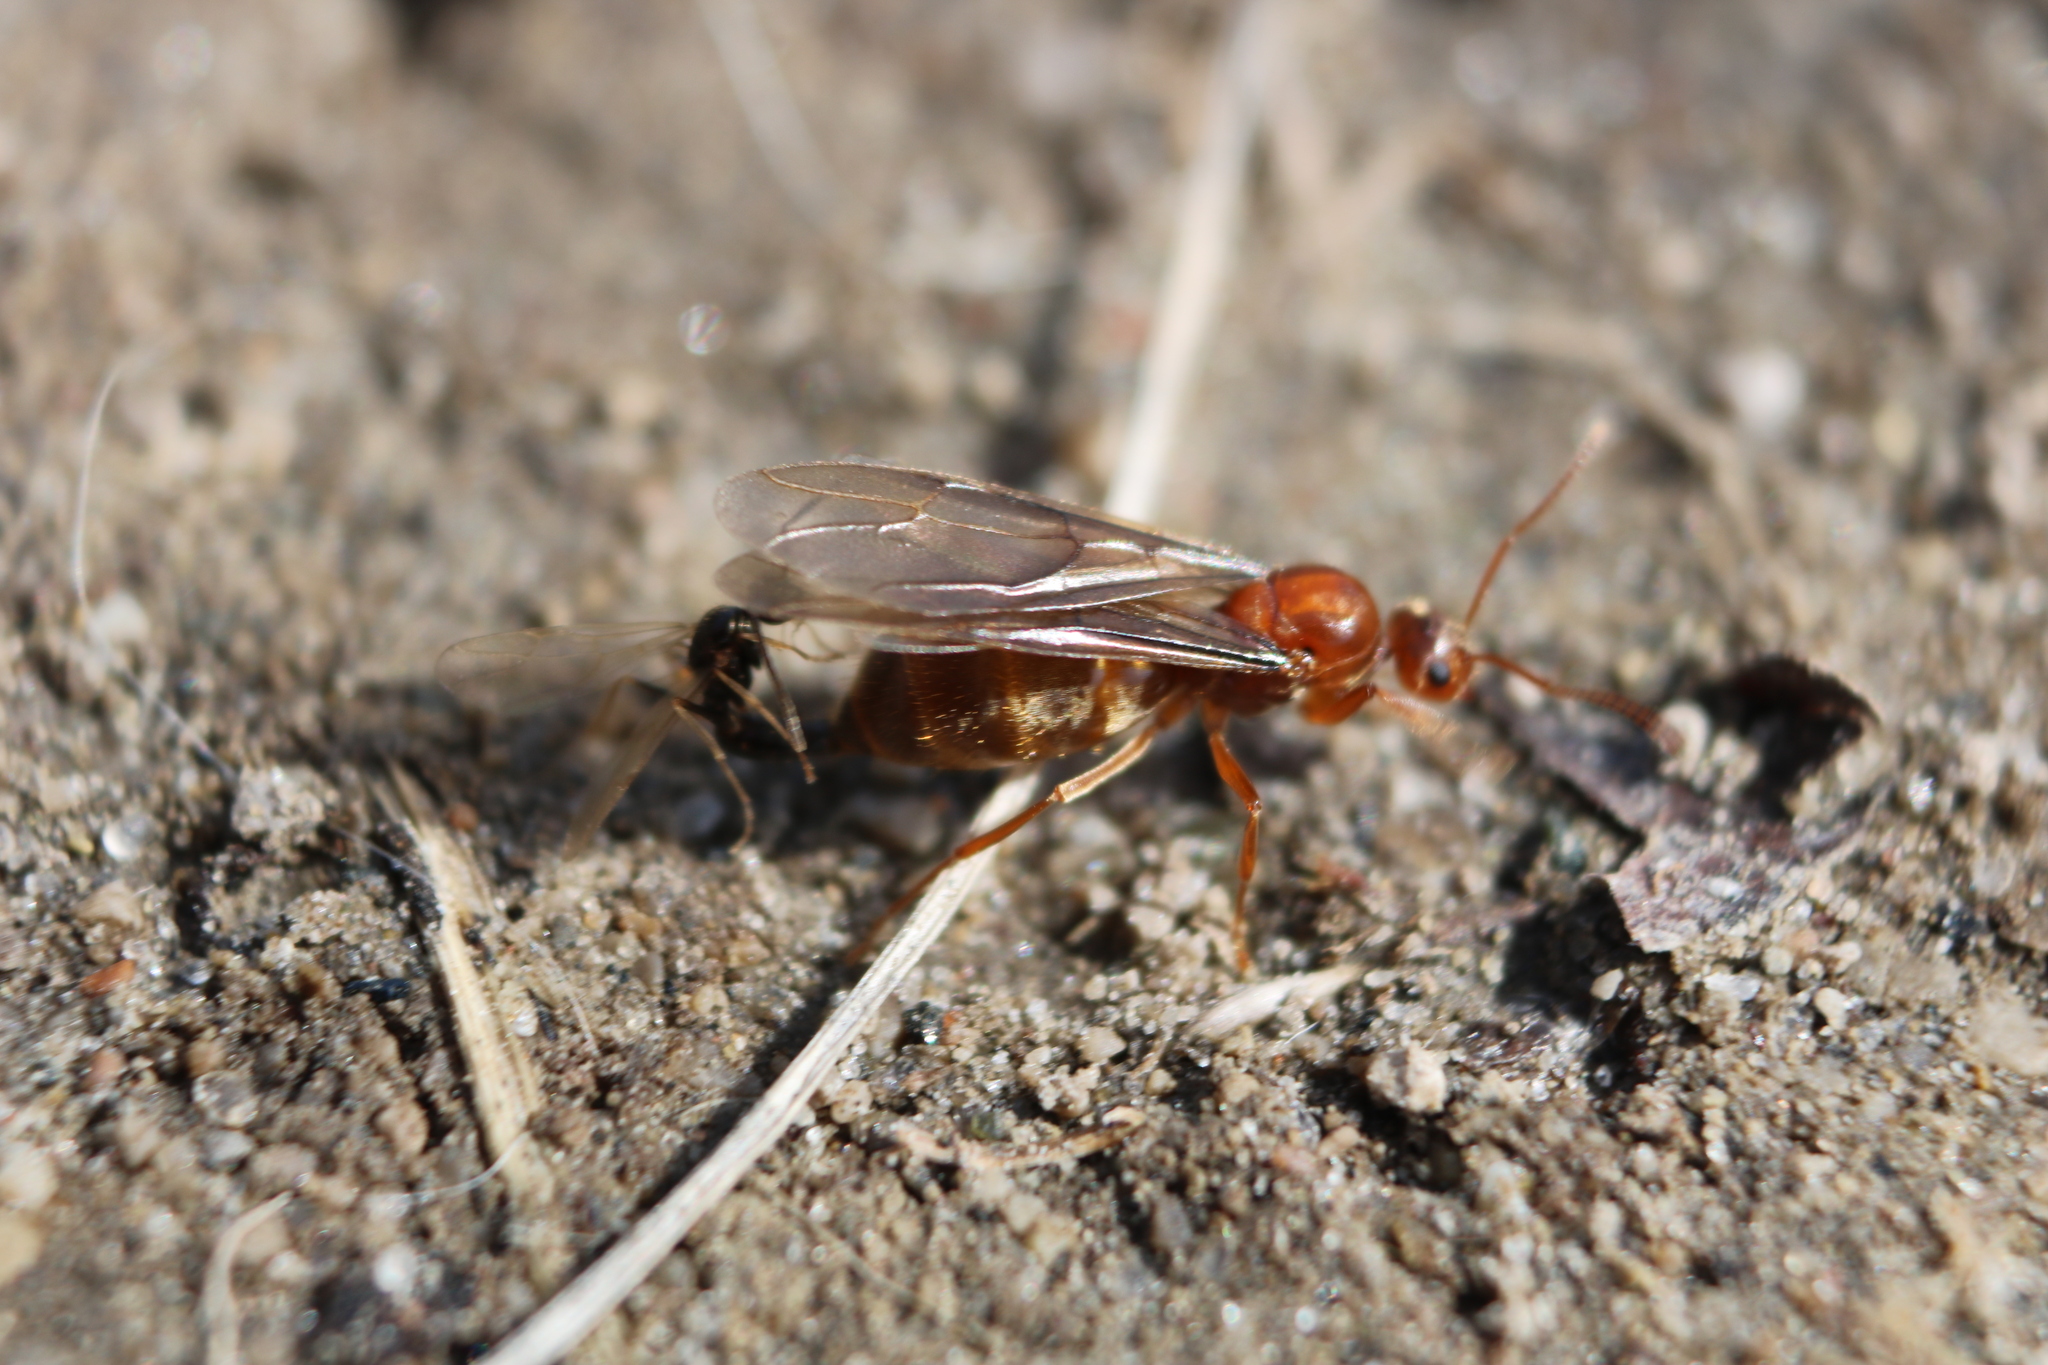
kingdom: Animalia
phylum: Arthropoda
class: Insecta
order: Hymenoptera
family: Formicidae
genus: Prenolepis
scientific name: Prenolepis imparis
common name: Small honey ant
